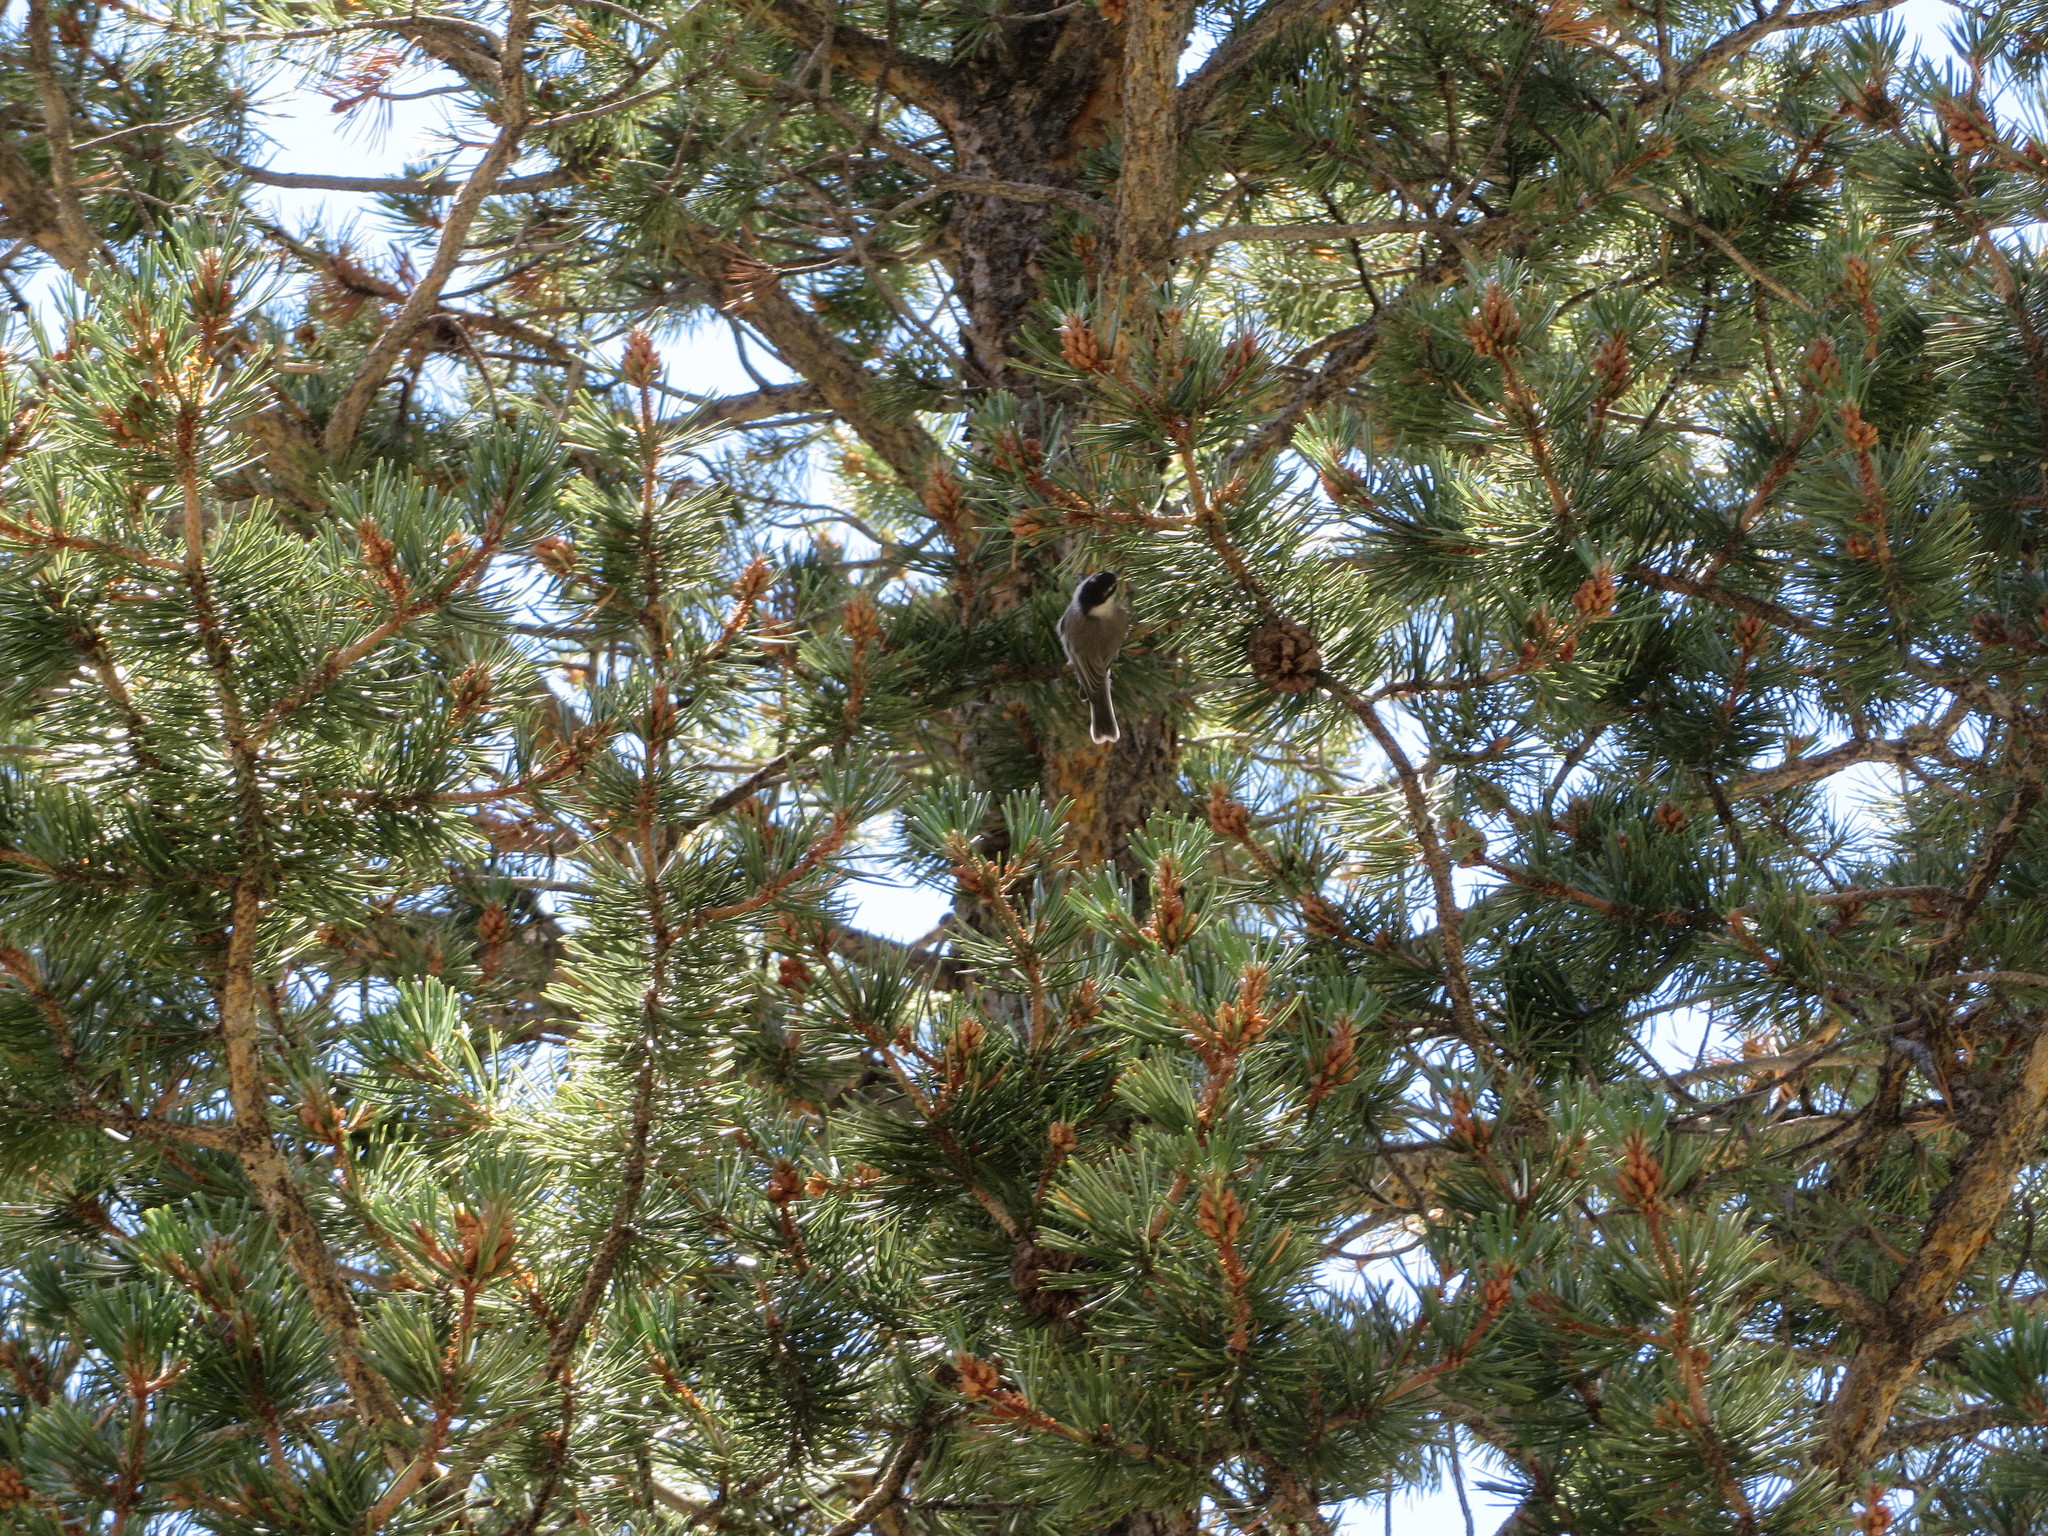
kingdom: Animalia
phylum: Chordata
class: Aves
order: Passeriformes
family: Paridae
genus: Poecile
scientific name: Poecile gambeli
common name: Mountain chickadee
